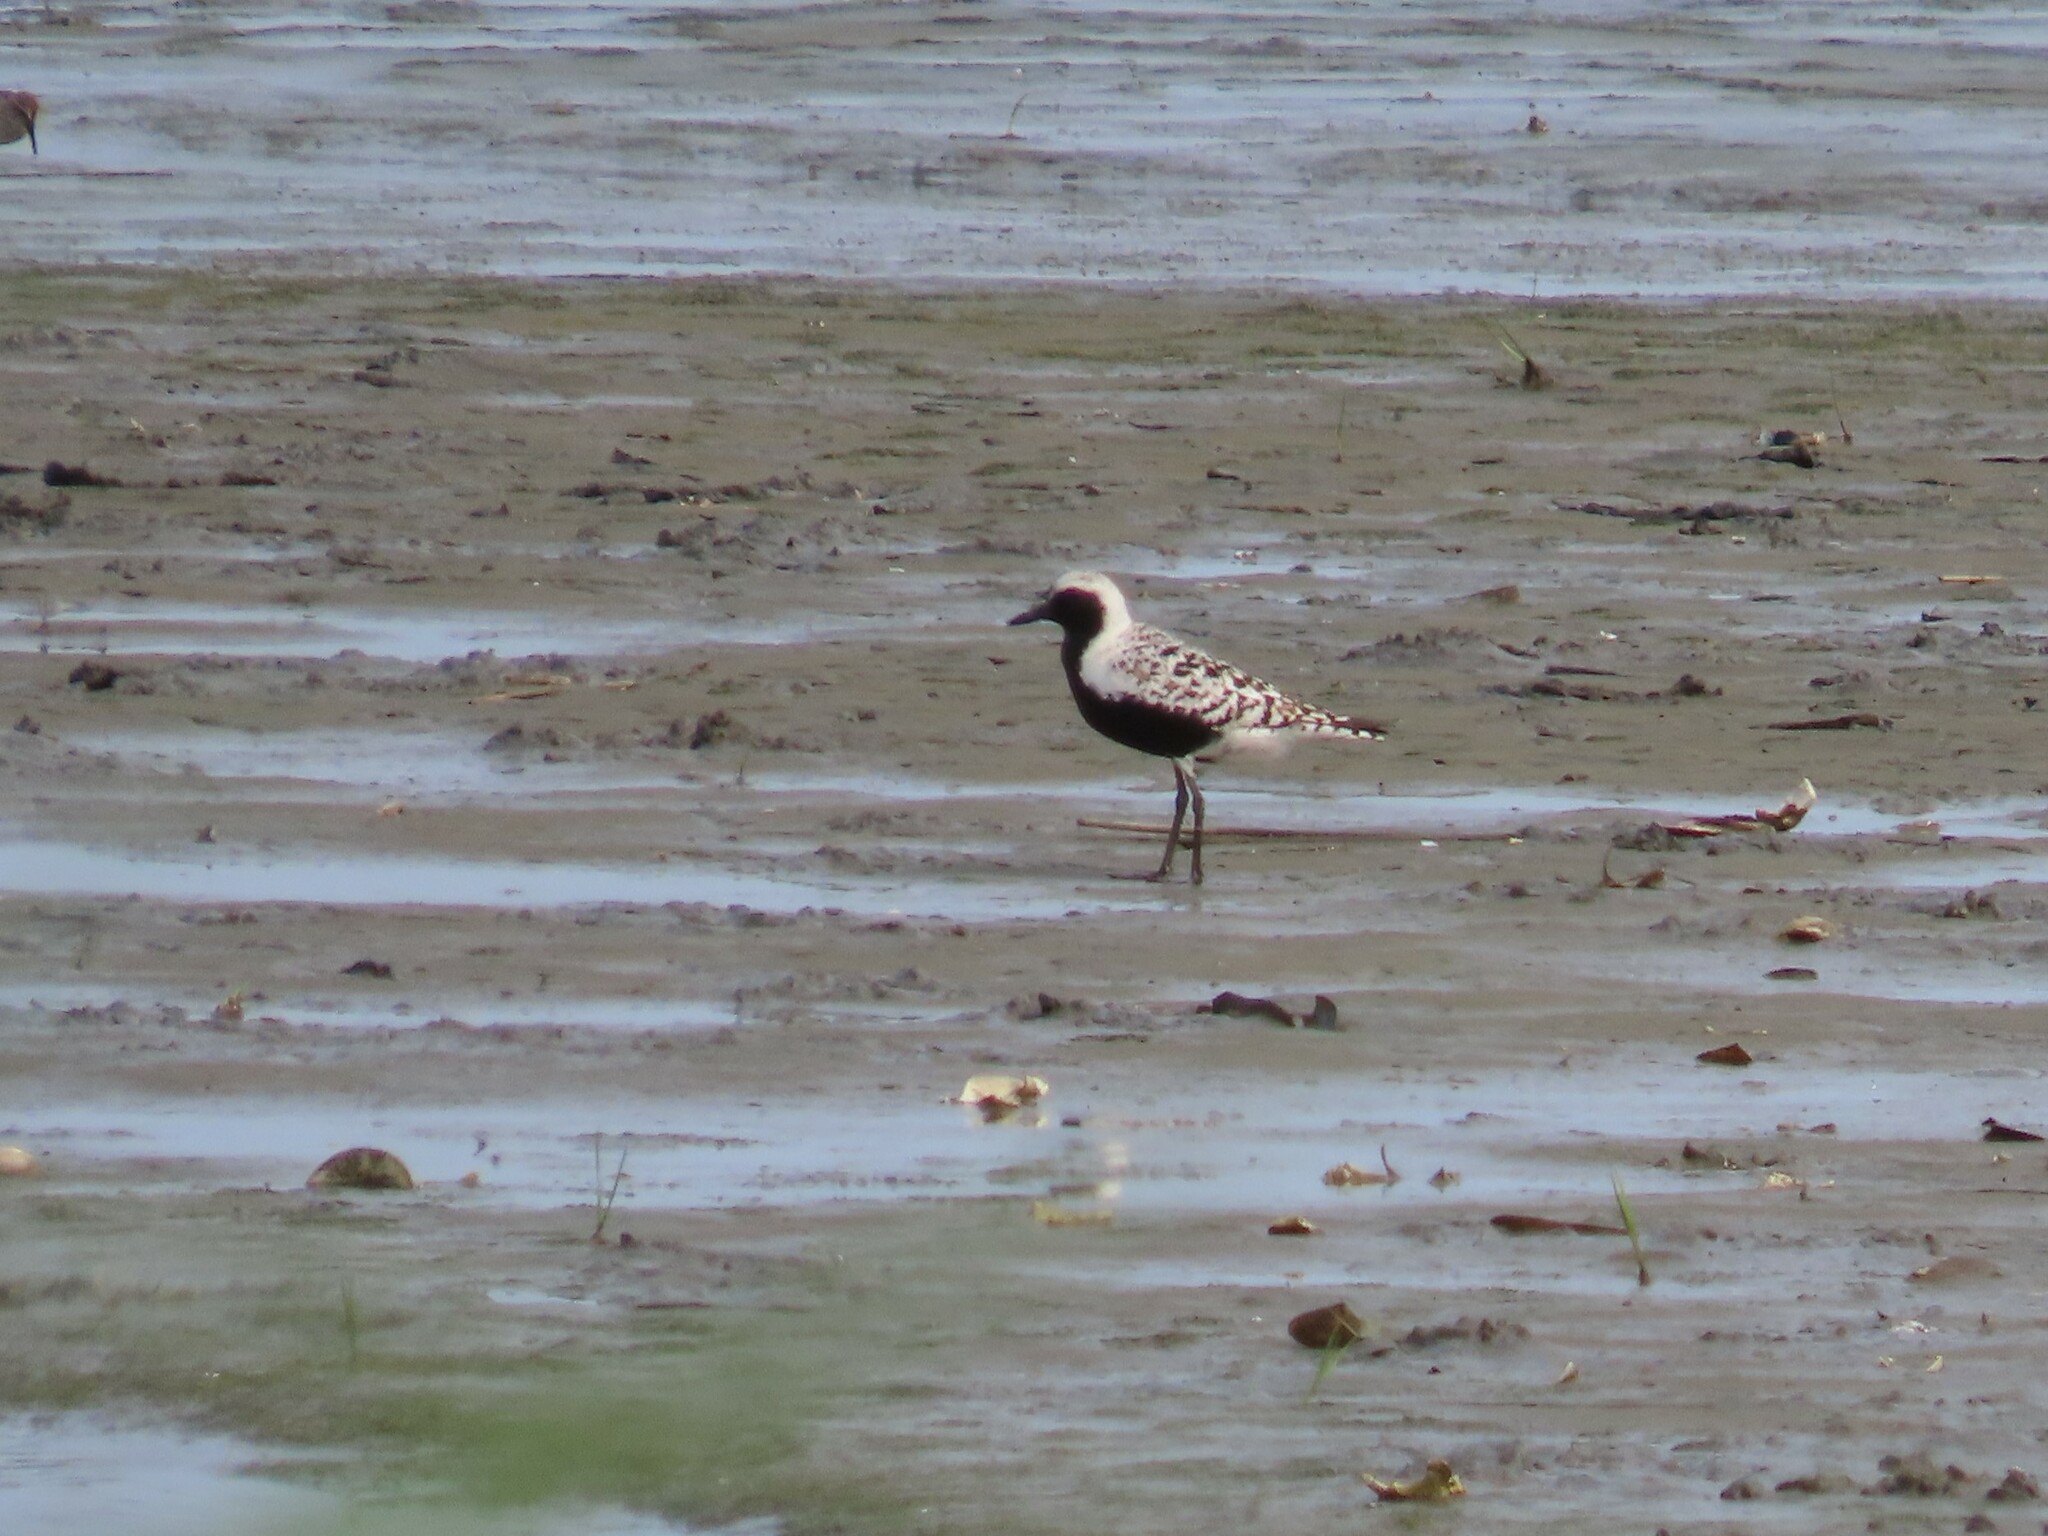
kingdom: Animalia
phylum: Chordata
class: Aves
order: Charadriiformes
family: Charadriidae
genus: Pluvialis
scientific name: Pluvialis squatarola
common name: Grey plover
